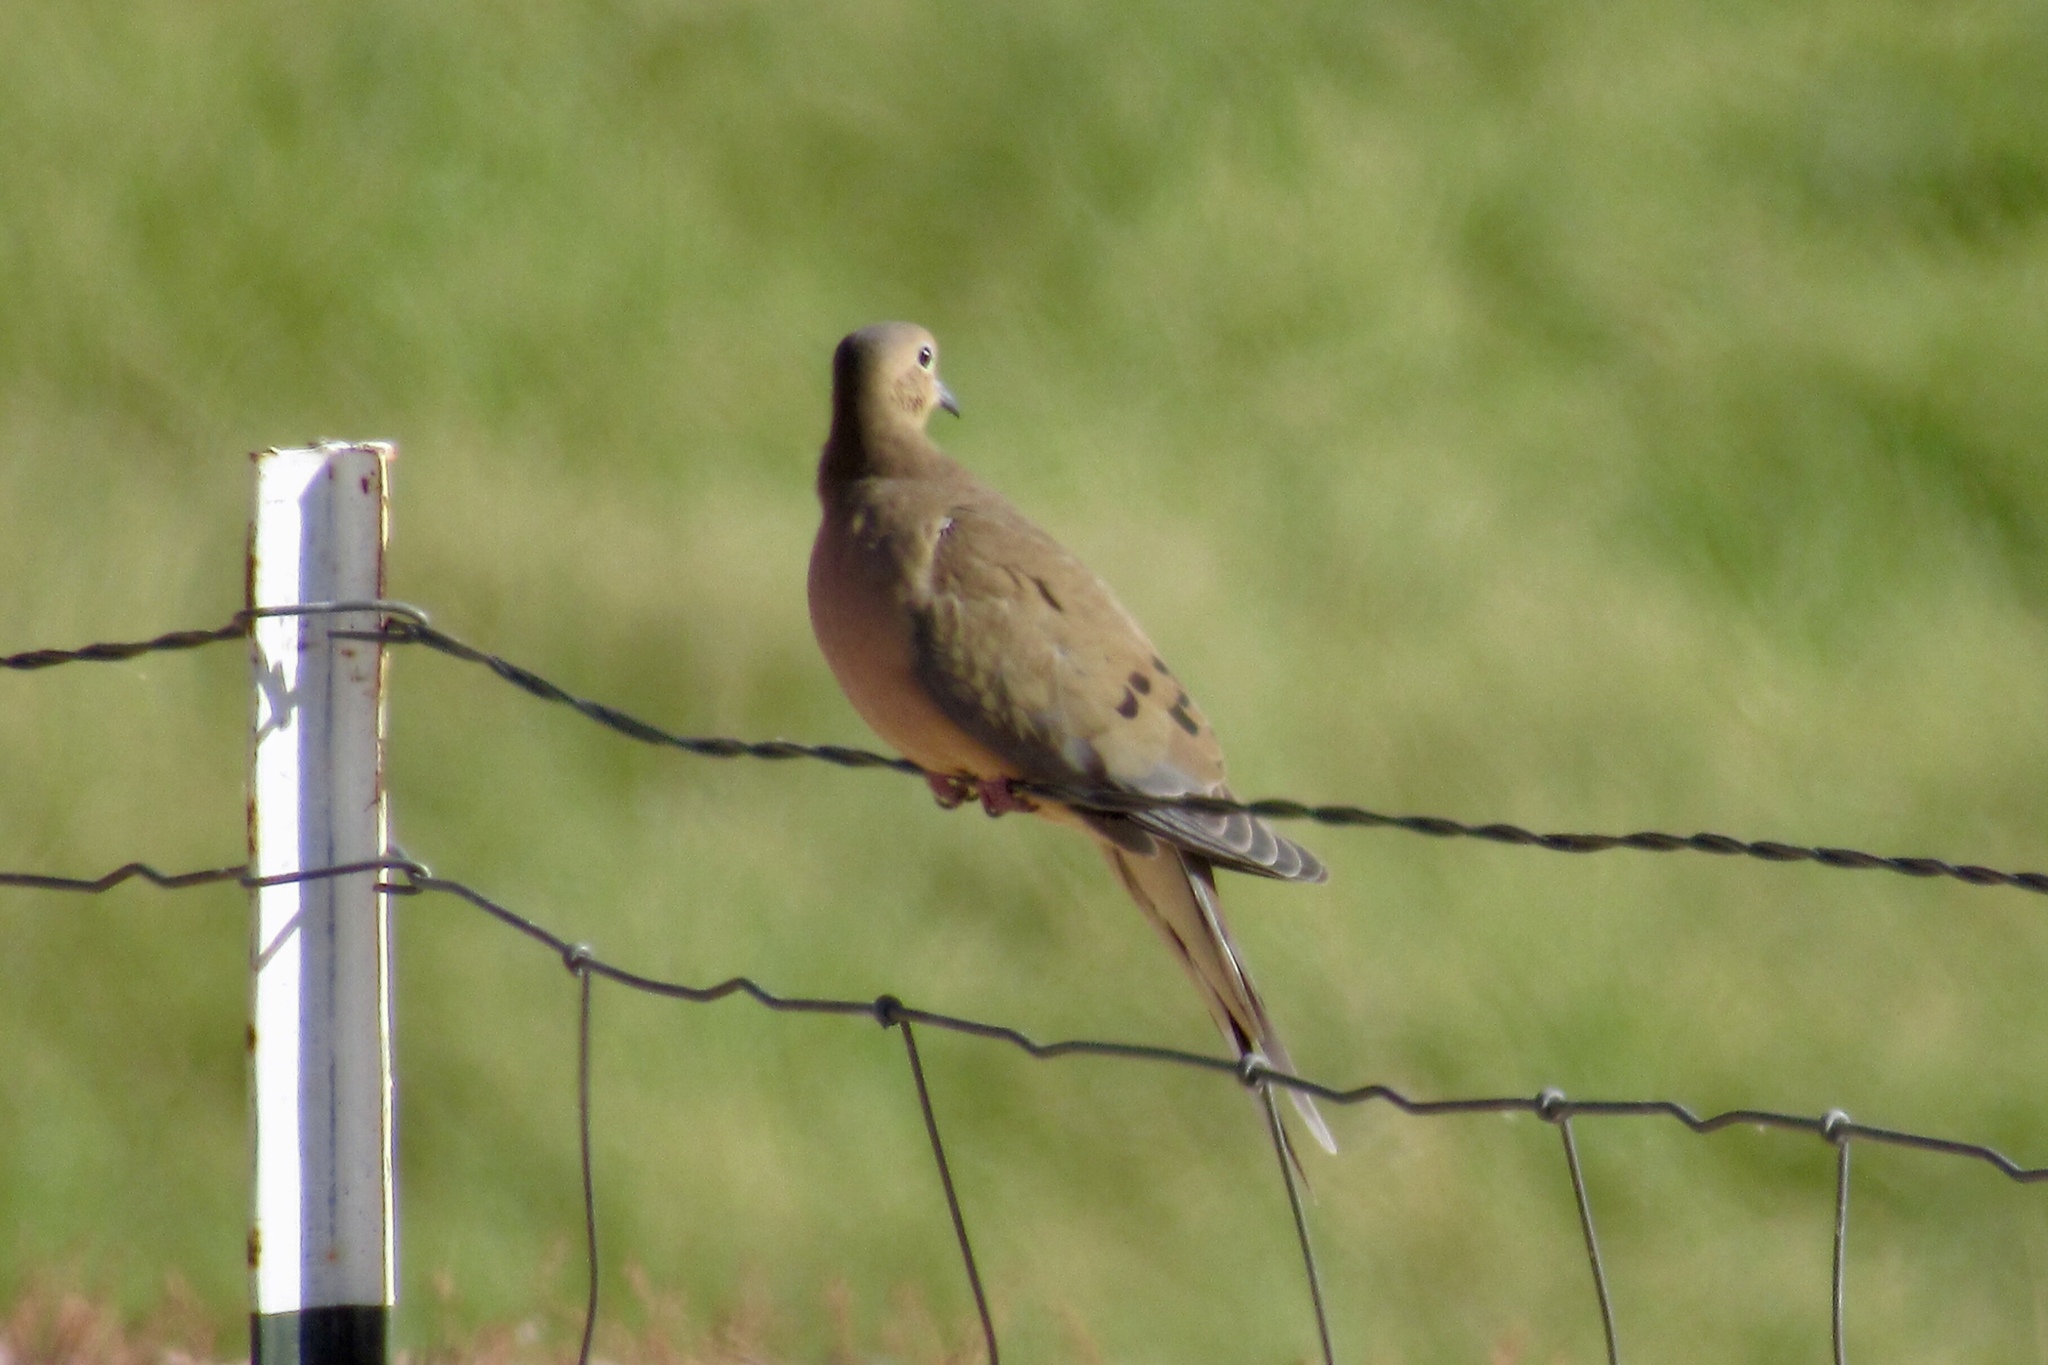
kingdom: Animalia
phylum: Chordata
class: Aves
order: Columbiformes
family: Columbidae
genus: Zenaida
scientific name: Zenaida macroura
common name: Mourning dove
